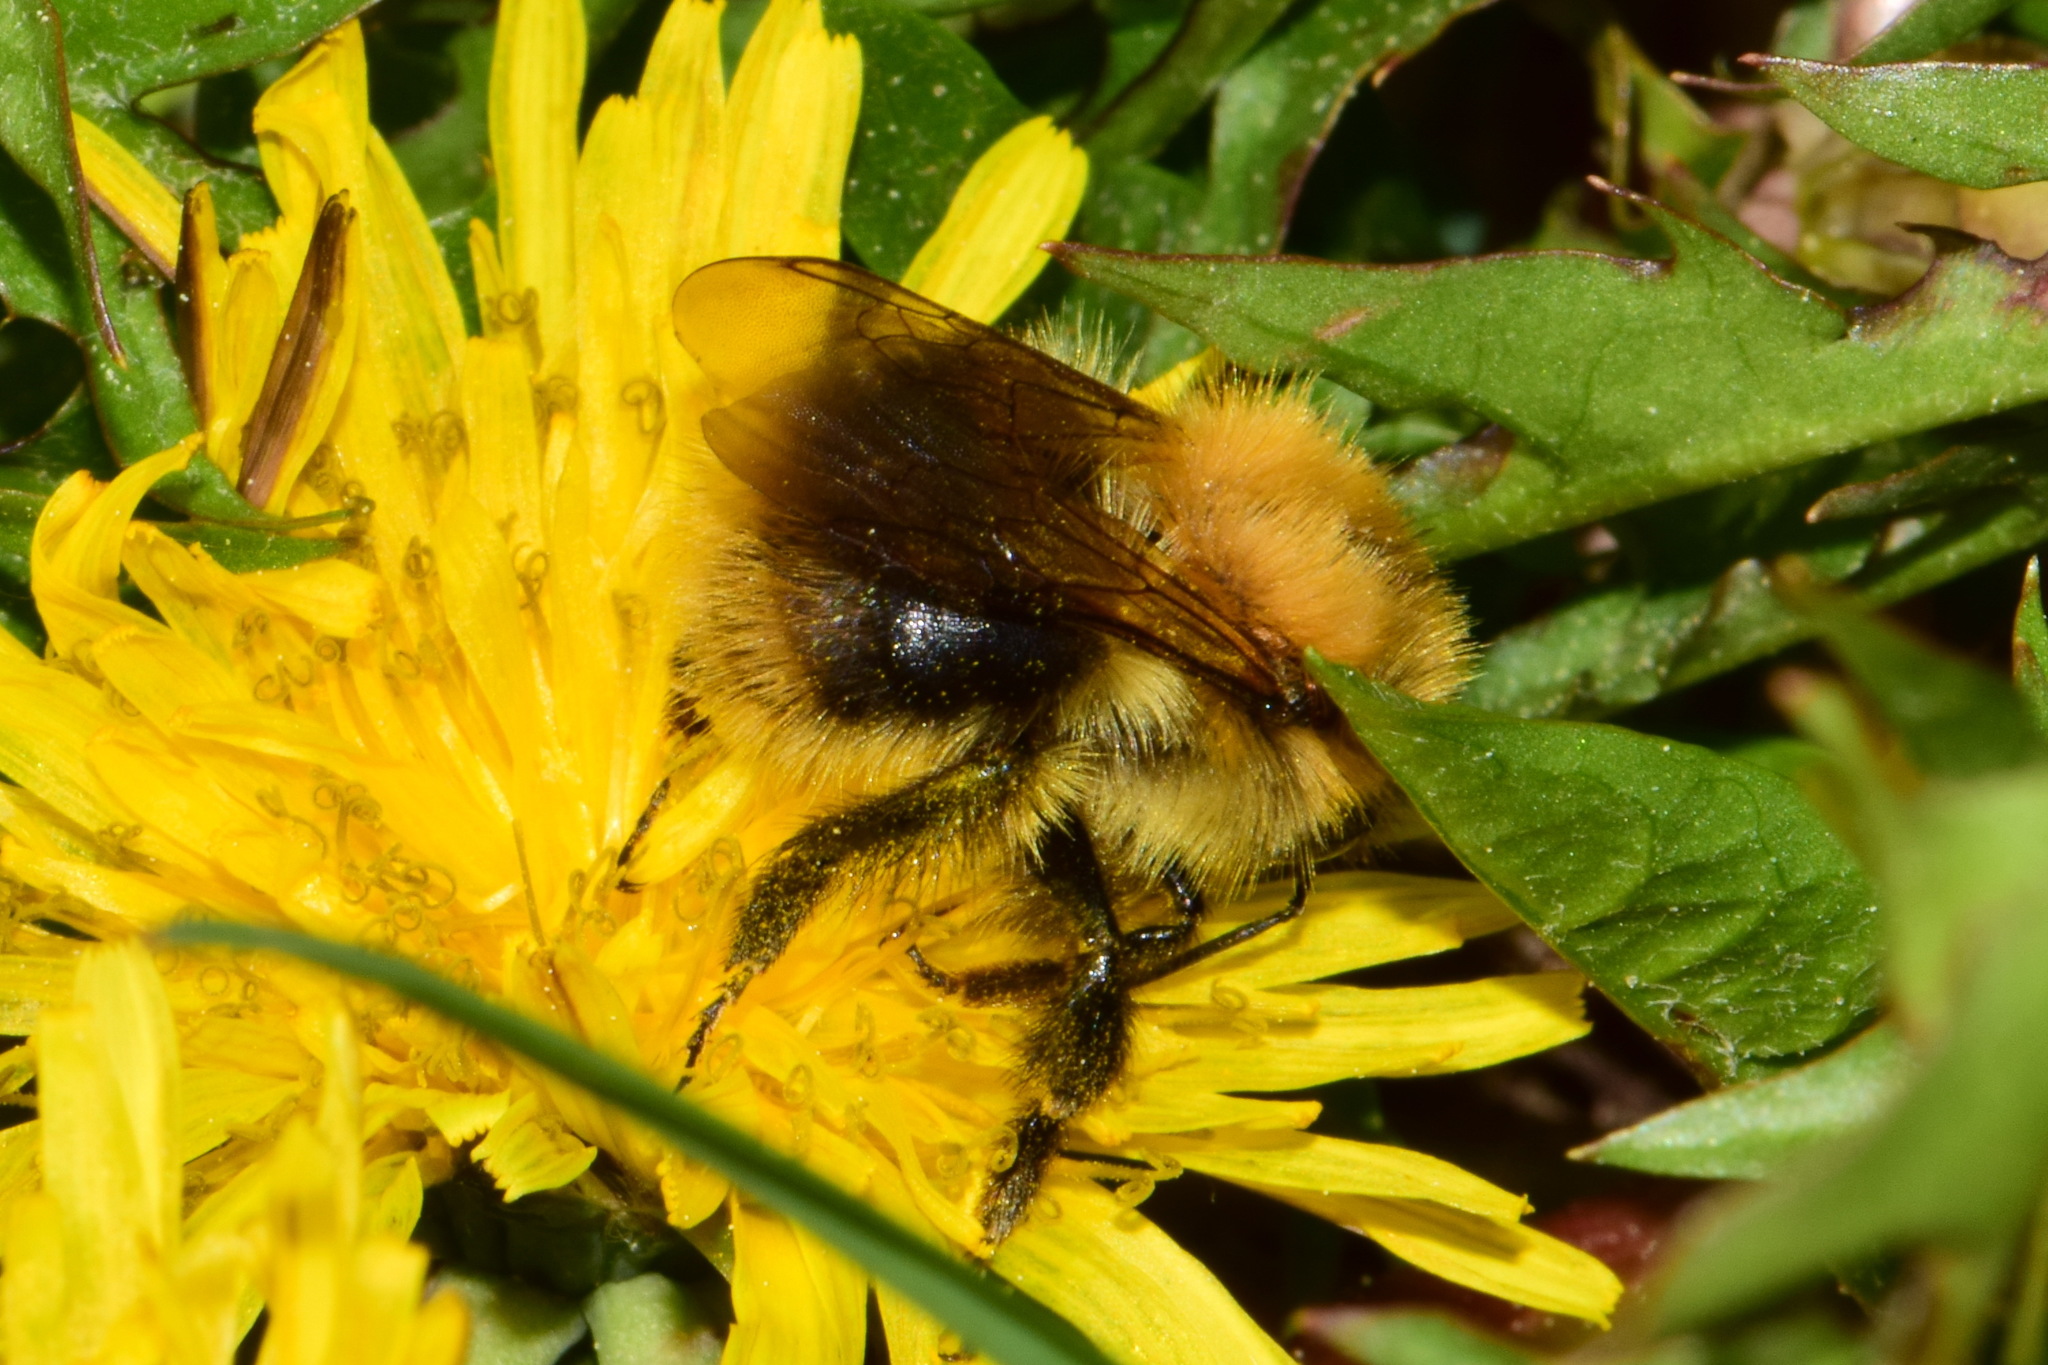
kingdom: Animalia
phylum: Arthropoda
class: Insecta
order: Hymenoptera
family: Apidae
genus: Bombus
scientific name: Bombus pascuorum
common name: Common carder bee
